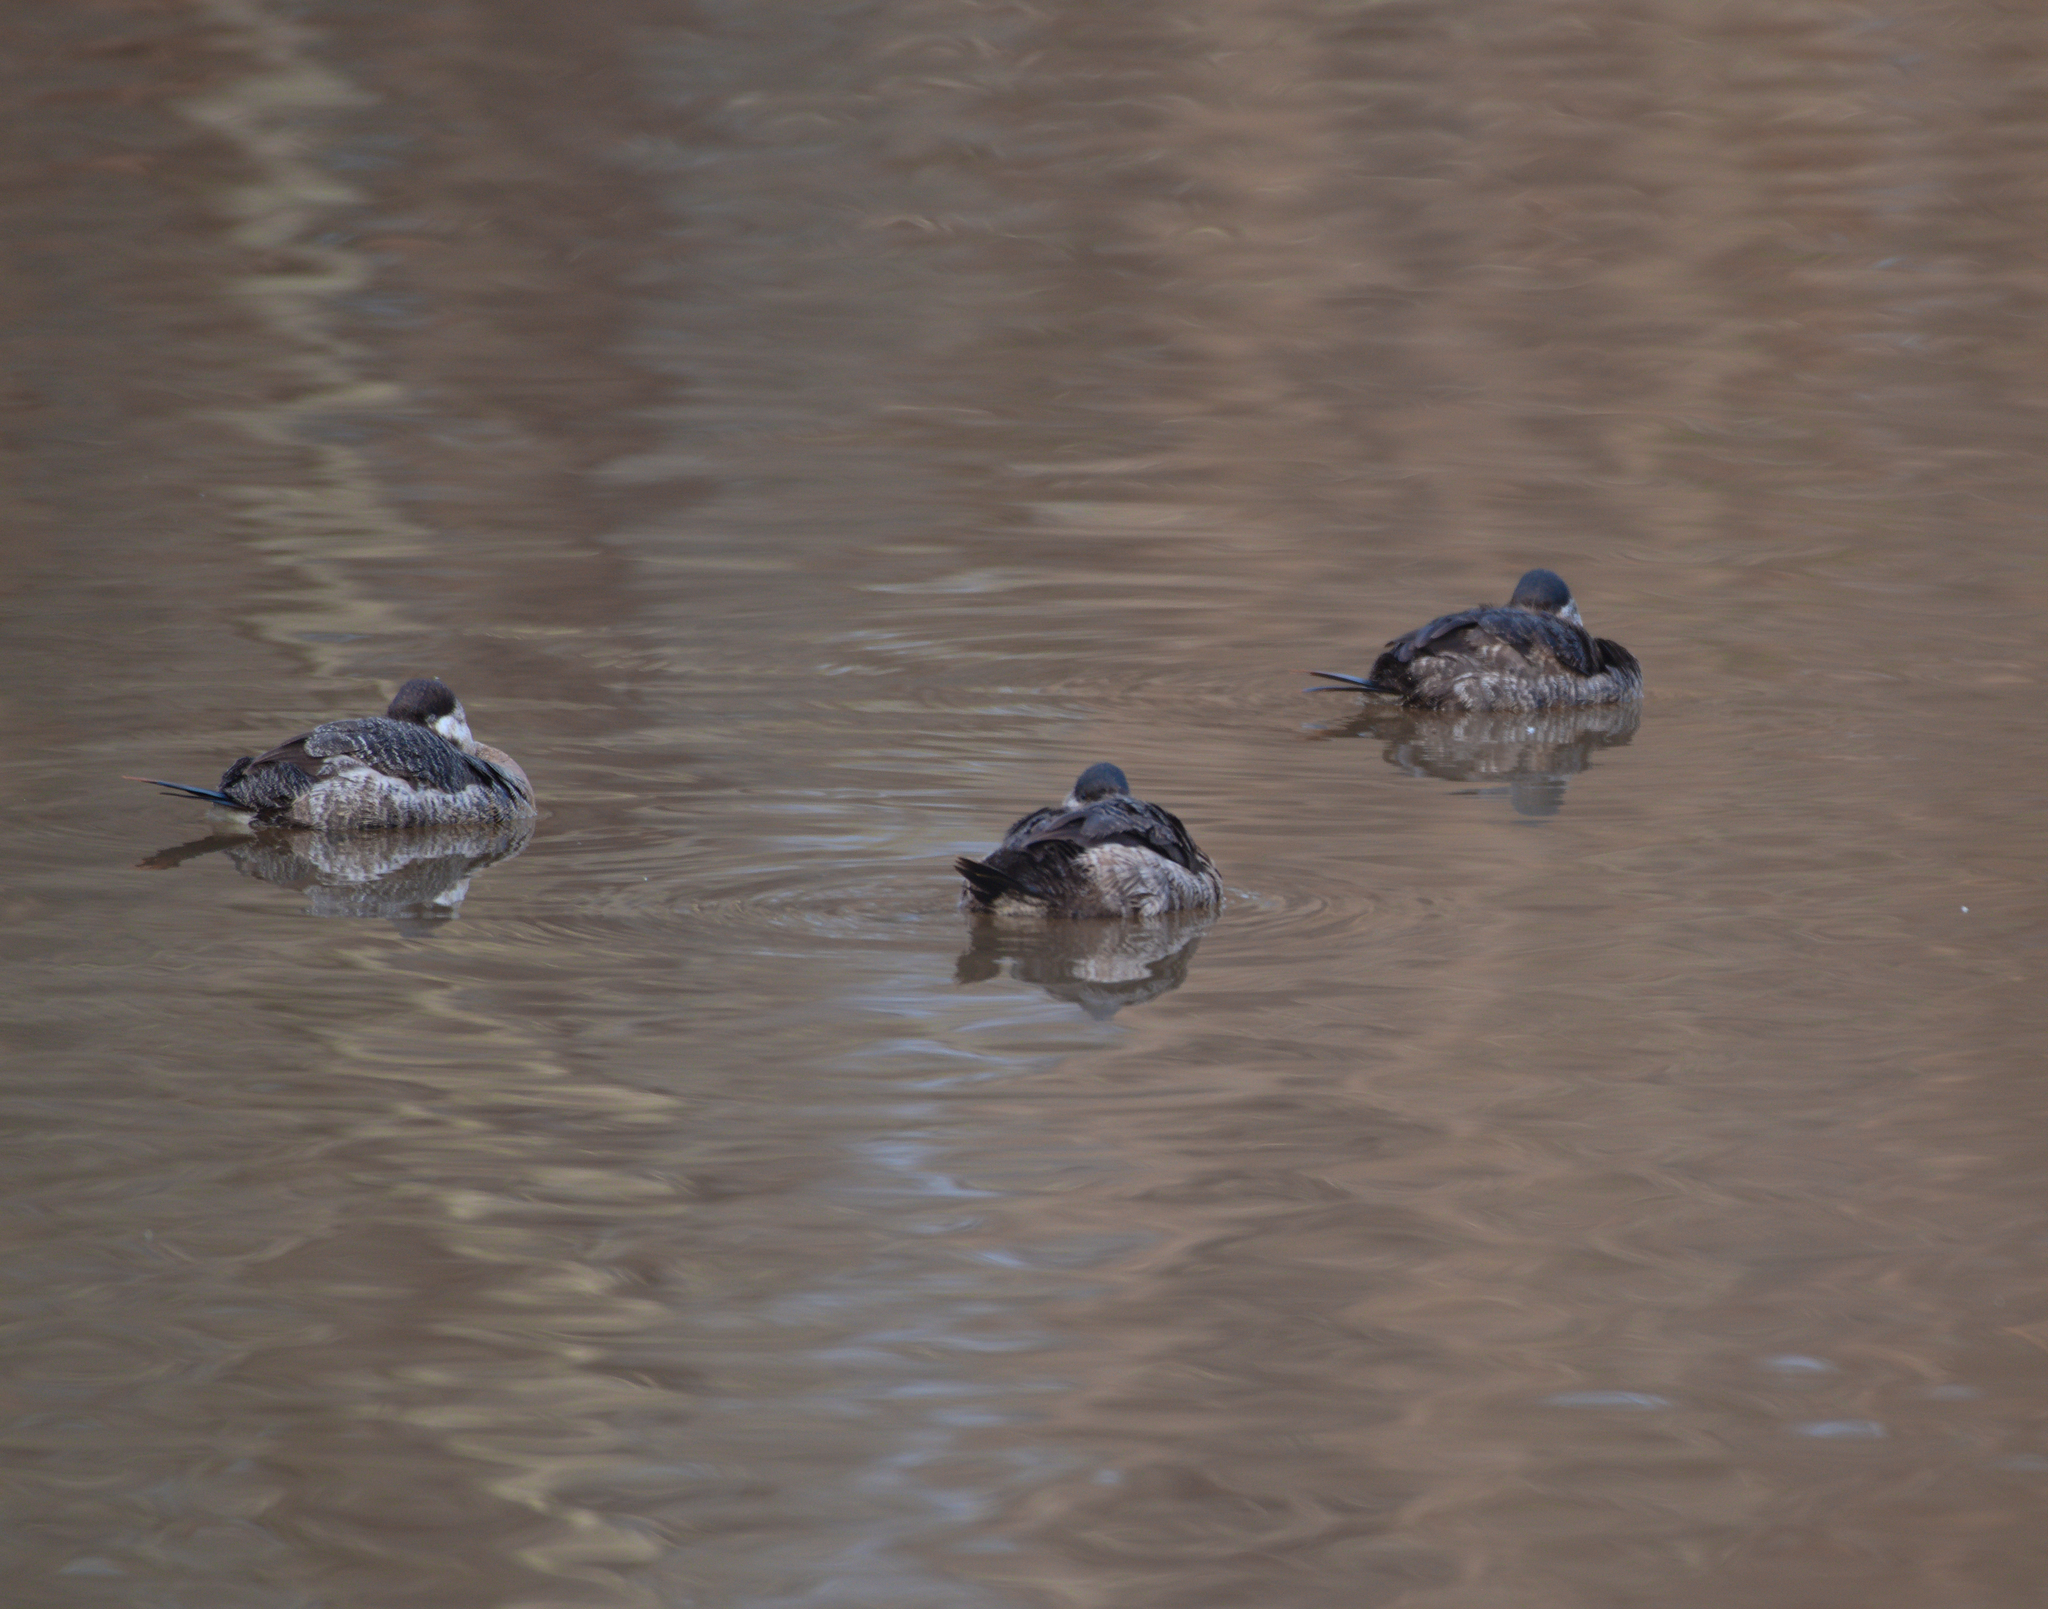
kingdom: Animalia
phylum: Chordata
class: Aves
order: Anseriformes
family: Anatidae
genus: Oxyura
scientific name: Oxyura jamaicensis
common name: Ruddy duck
